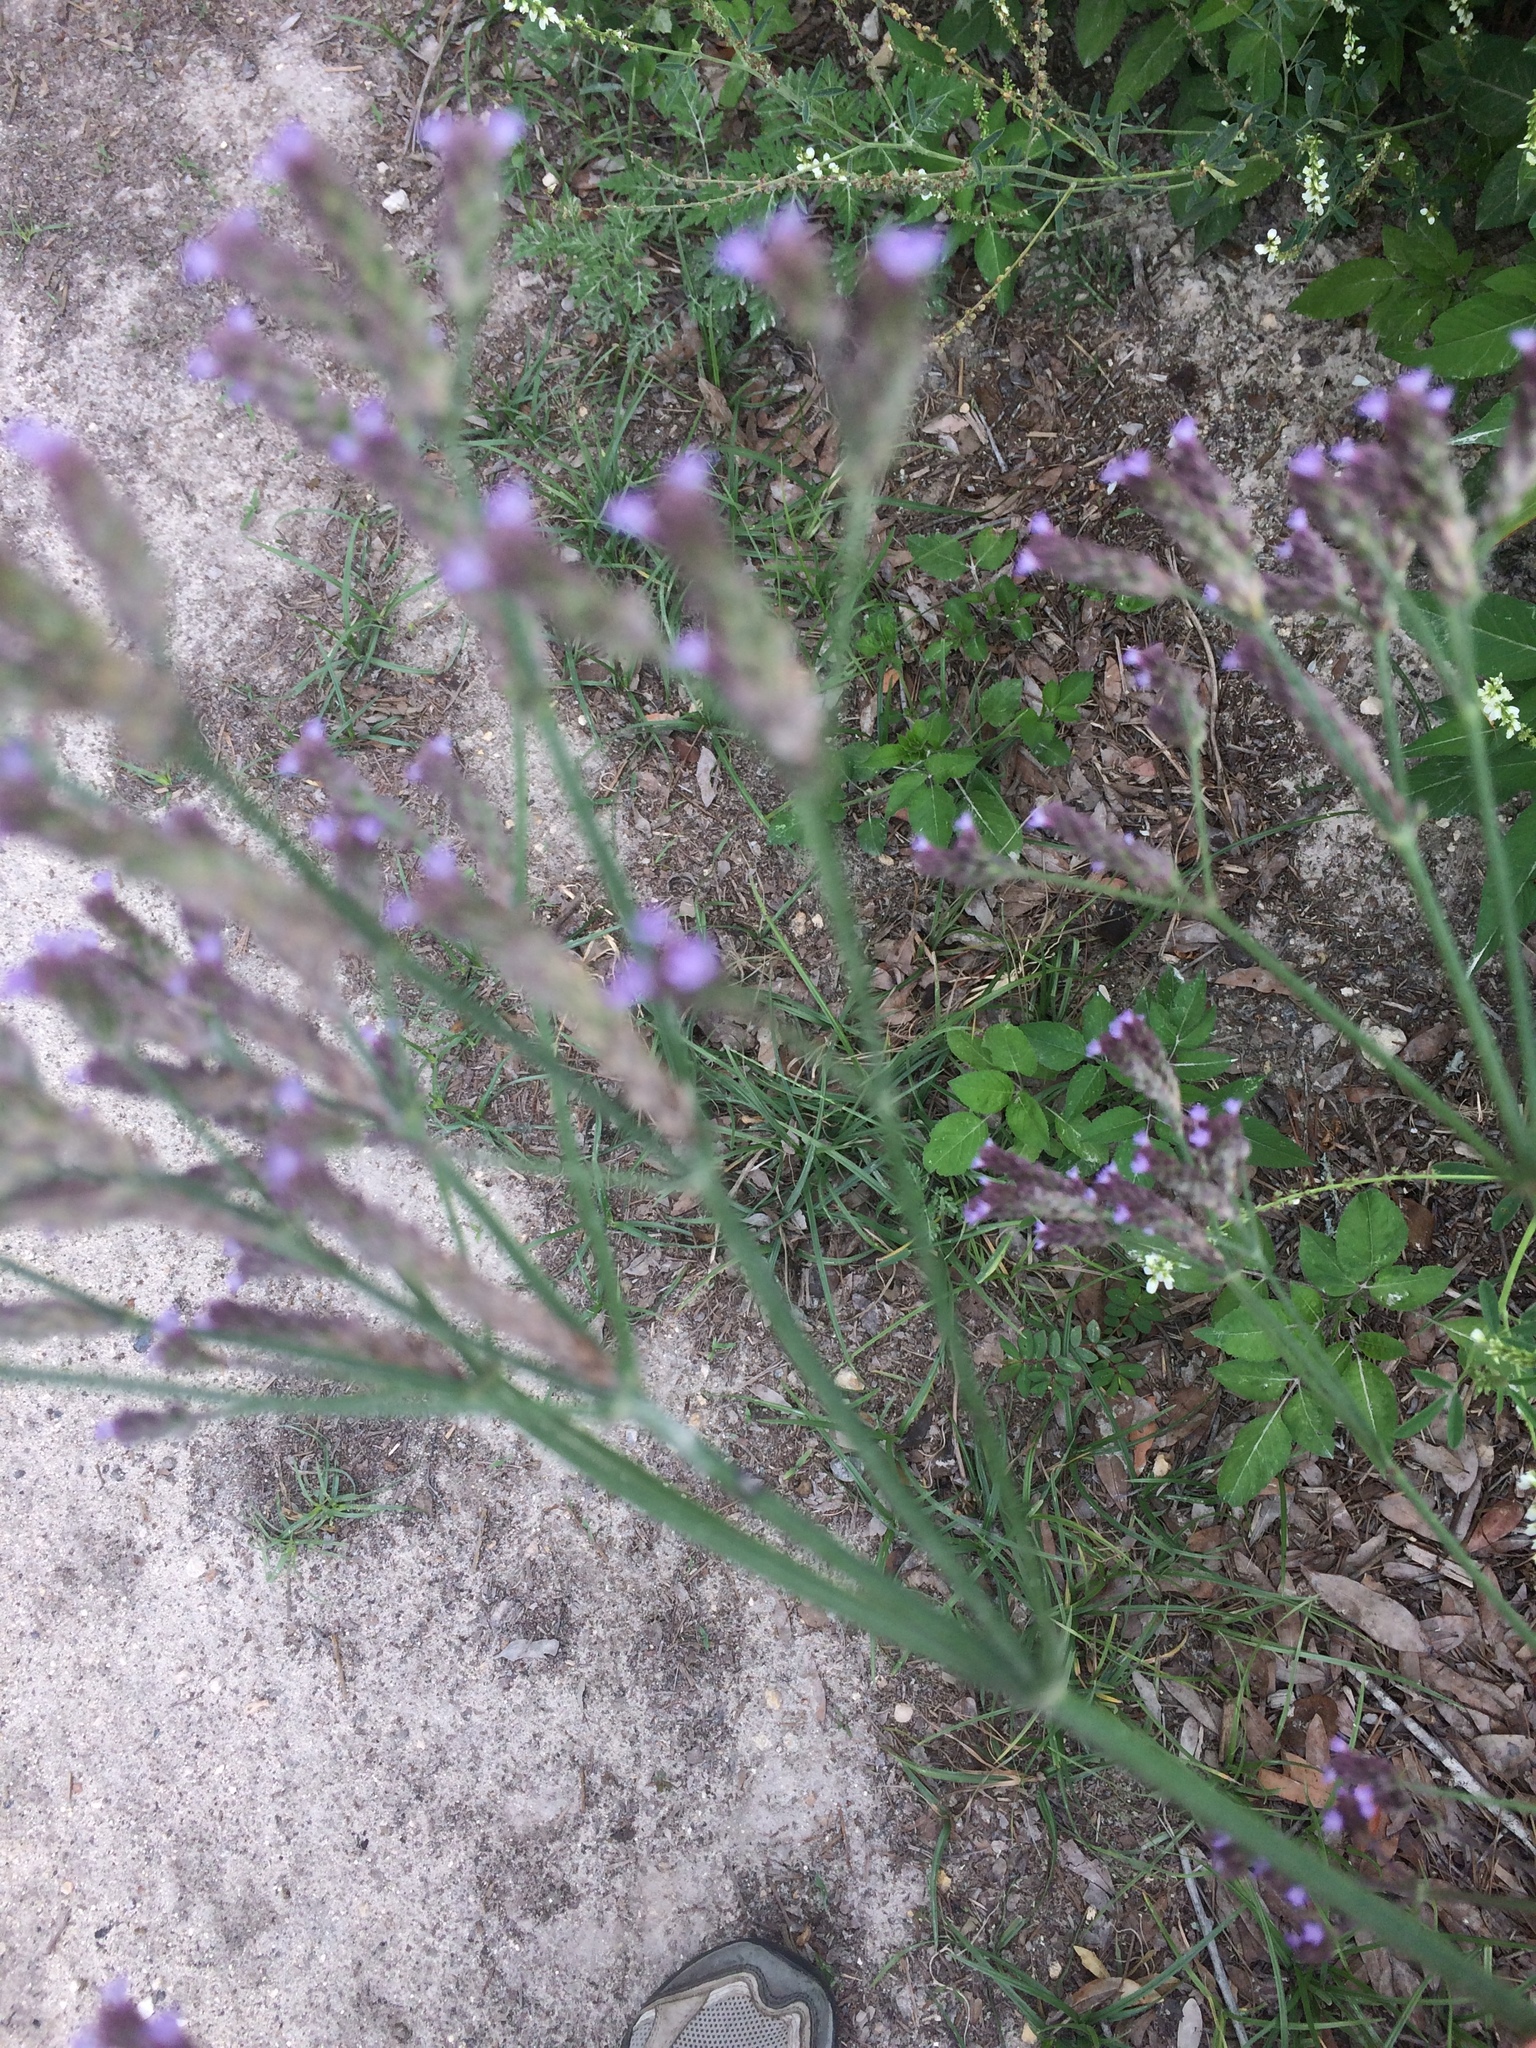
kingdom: Plantae
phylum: Tracheophyta
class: Magnoliopsida
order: Lamiales
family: Verbenaceae
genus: Verbena
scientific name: Verbena brasiliensis
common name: Brazilian vervain
